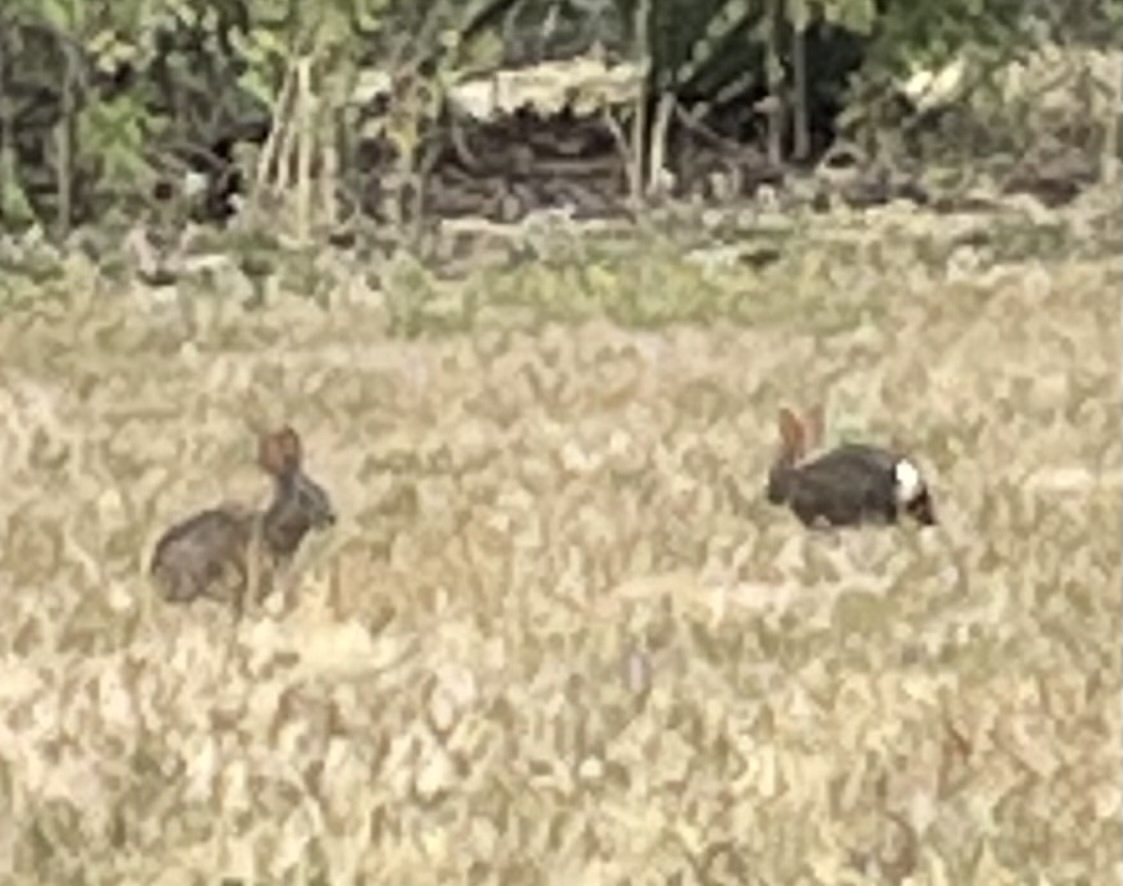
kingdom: Animalia
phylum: Chordata
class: Mammalia
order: Lagomorpha
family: Leporidae
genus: Sylvilagus
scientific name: Sylvilagus bachmani
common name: Brush rabbit
